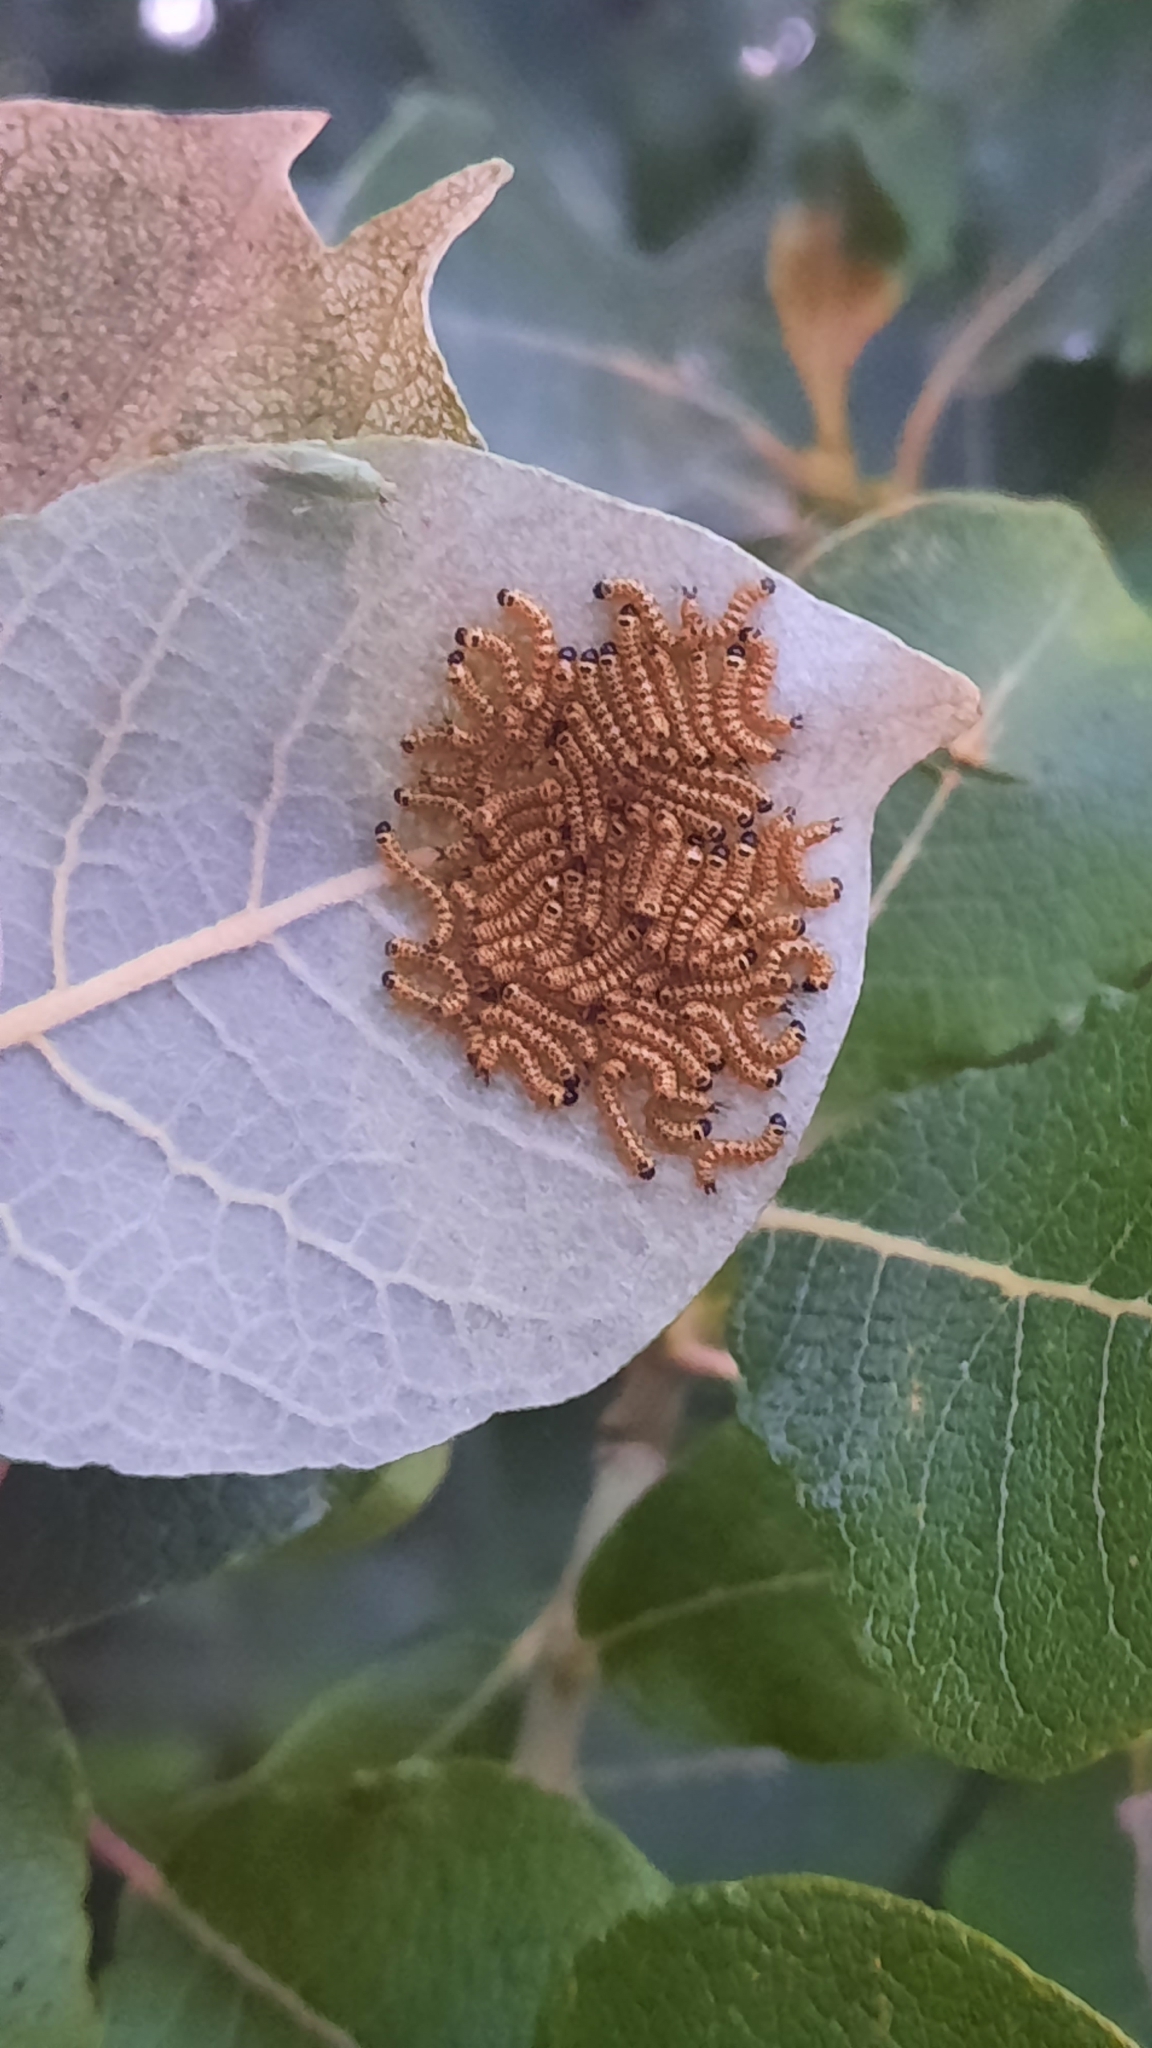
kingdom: Animalia
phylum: Arthropoda
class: Insecta
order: Lepidoptera
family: Notodontidae
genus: Phalera
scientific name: Phalera bucephala
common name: Buff-tip
